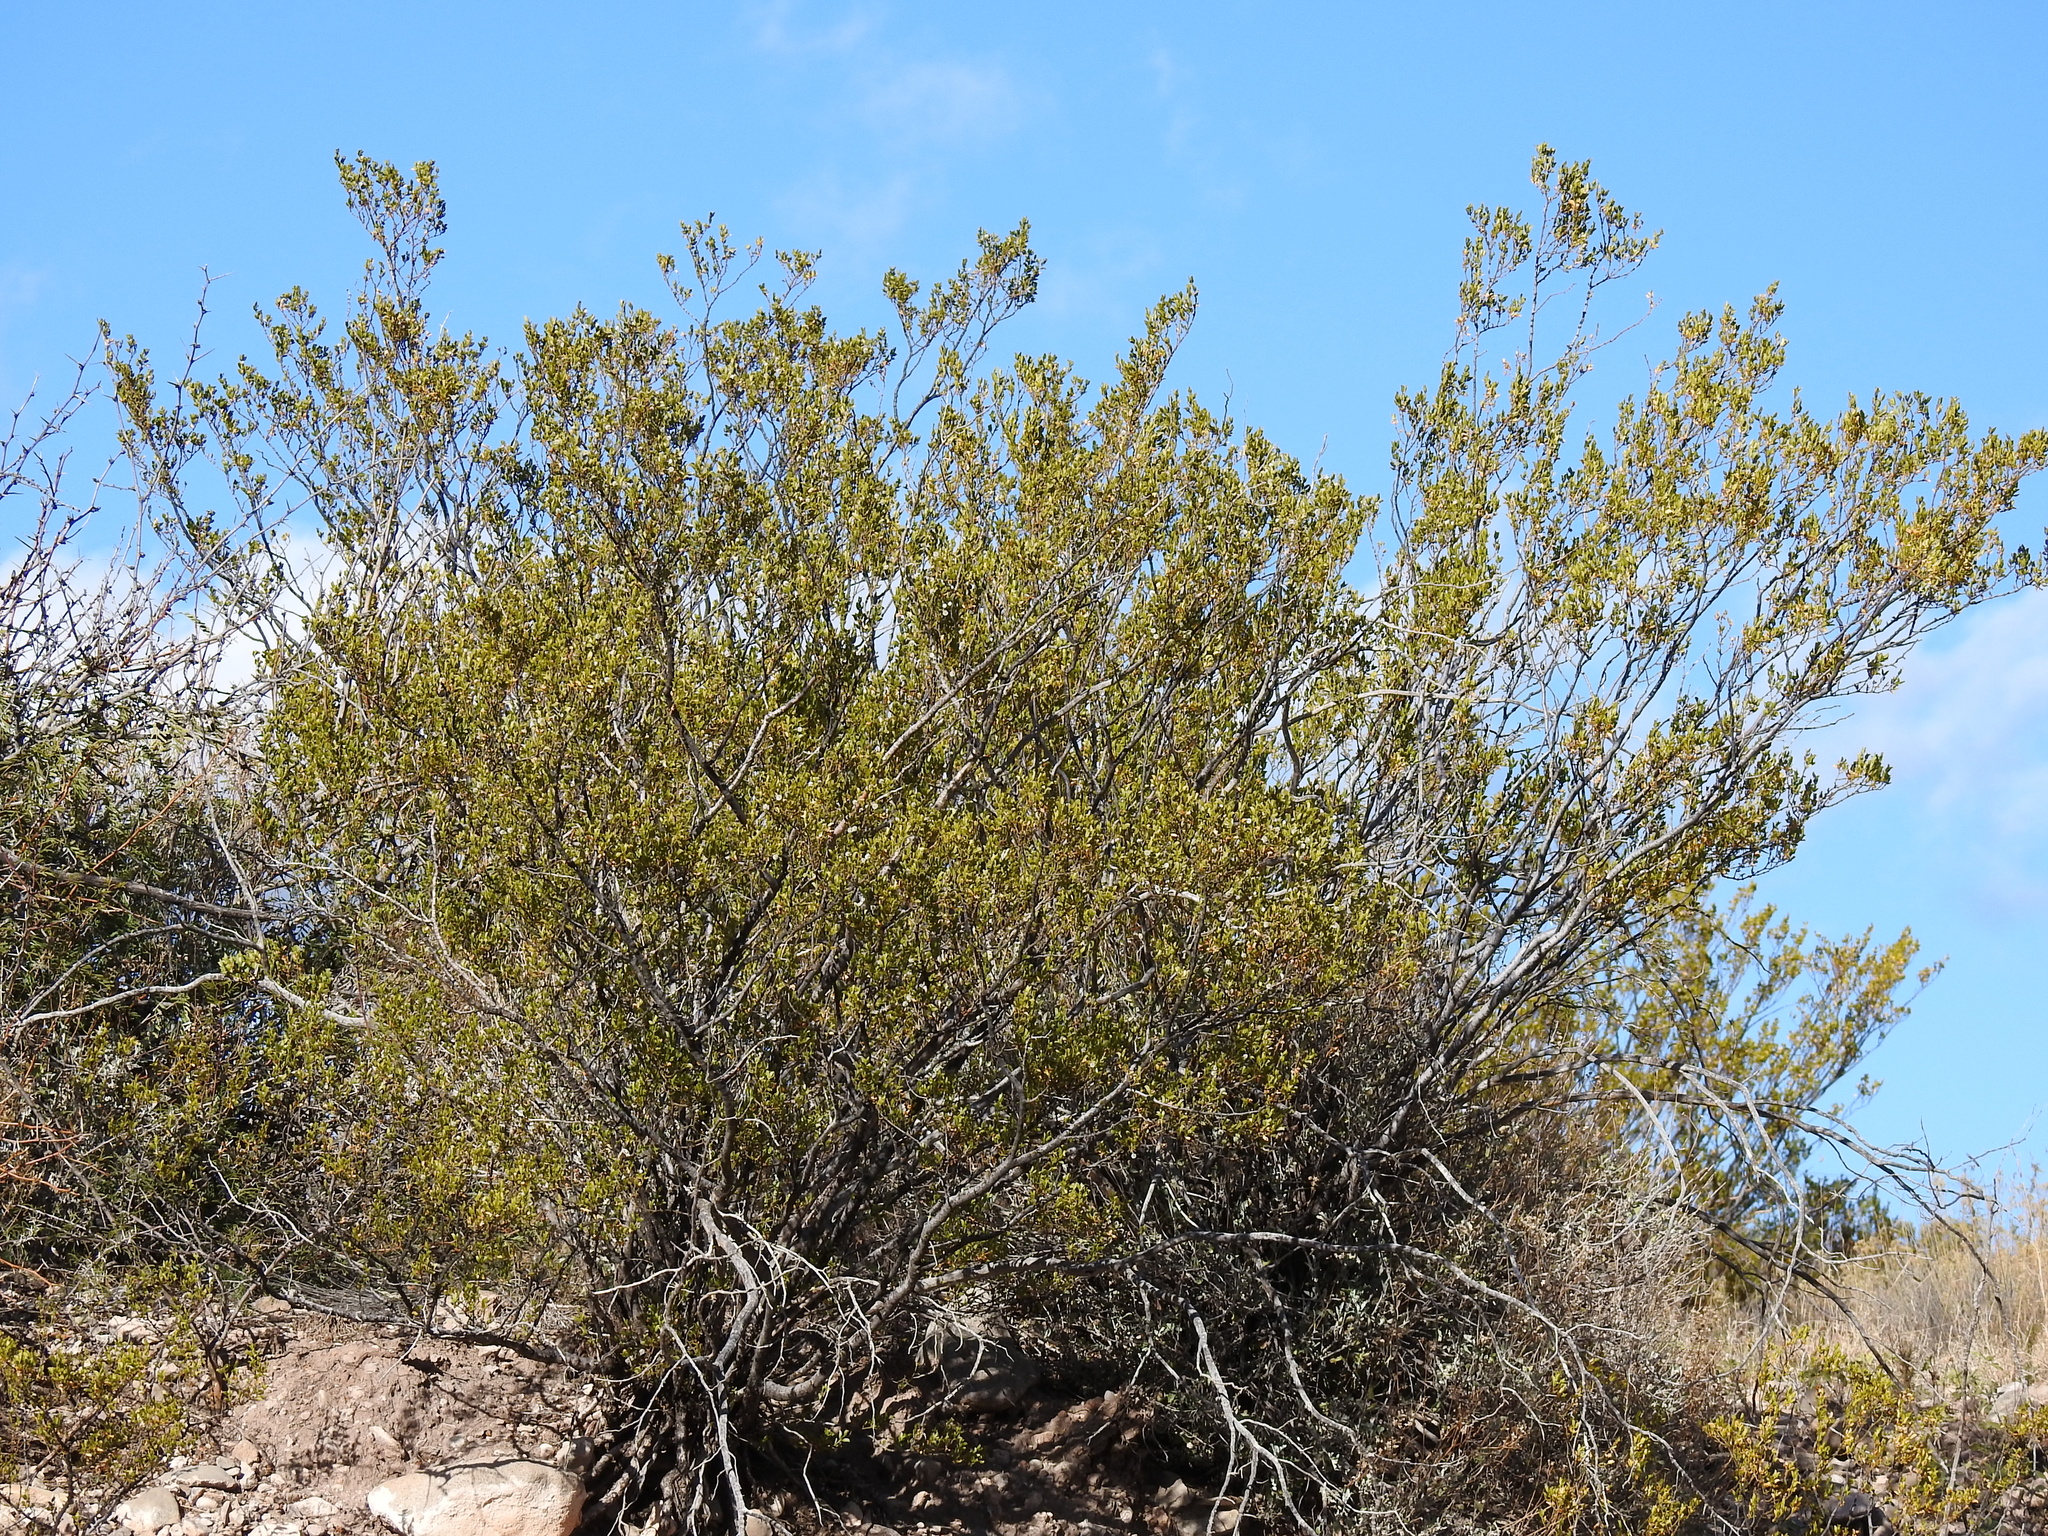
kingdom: Plantae
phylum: Tracheophyta
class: Magnoliopsida
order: Zygophyllales
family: Zygophyllaceae
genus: Larrea
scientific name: Larrea tridentata
